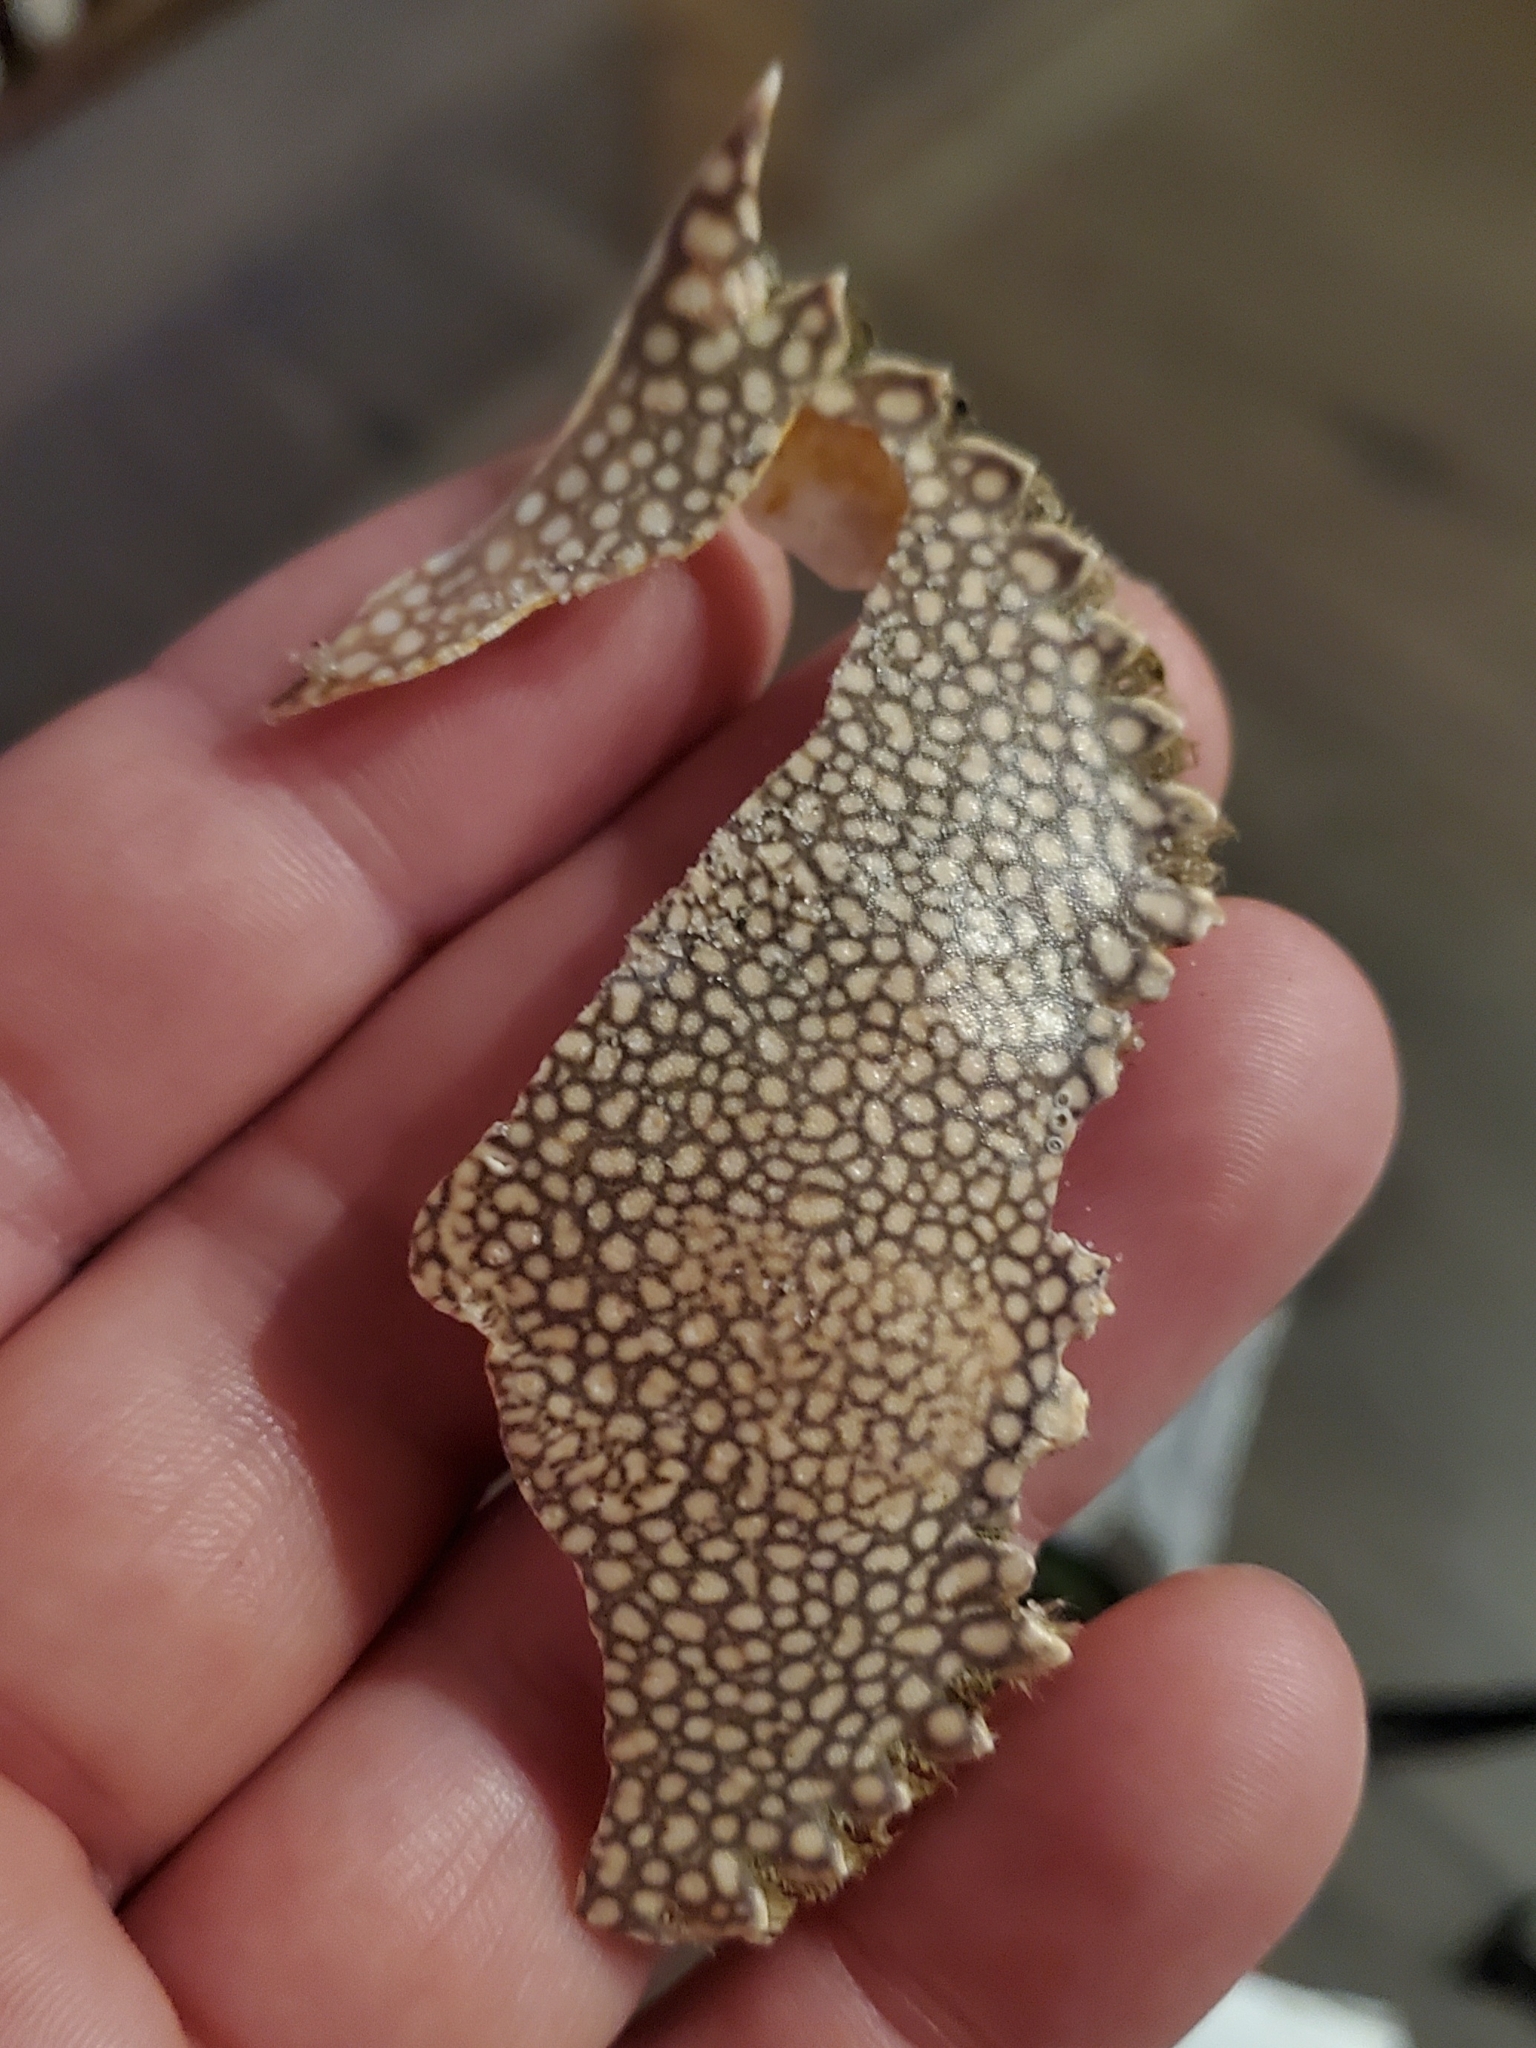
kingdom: Animalia
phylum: Arthropoda
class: Malacostraca
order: Decapoda
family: Portunidae
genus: Arenaeus
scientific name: Arenaeus cribrarius
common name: Speckled crab
